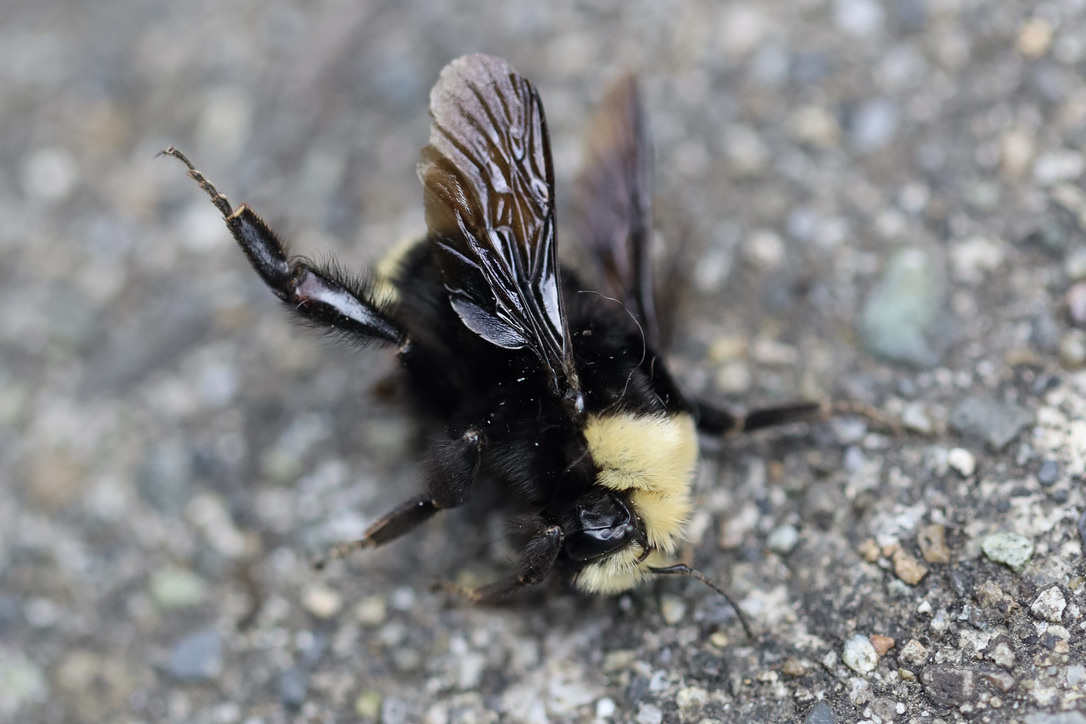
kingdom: Animalia
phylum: Arthropoda
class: Insecta
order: Hymenoptera
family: Apidae
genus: Bombus
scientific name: Bombus vosnesenskii
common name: Vosnesensky bumble bee
